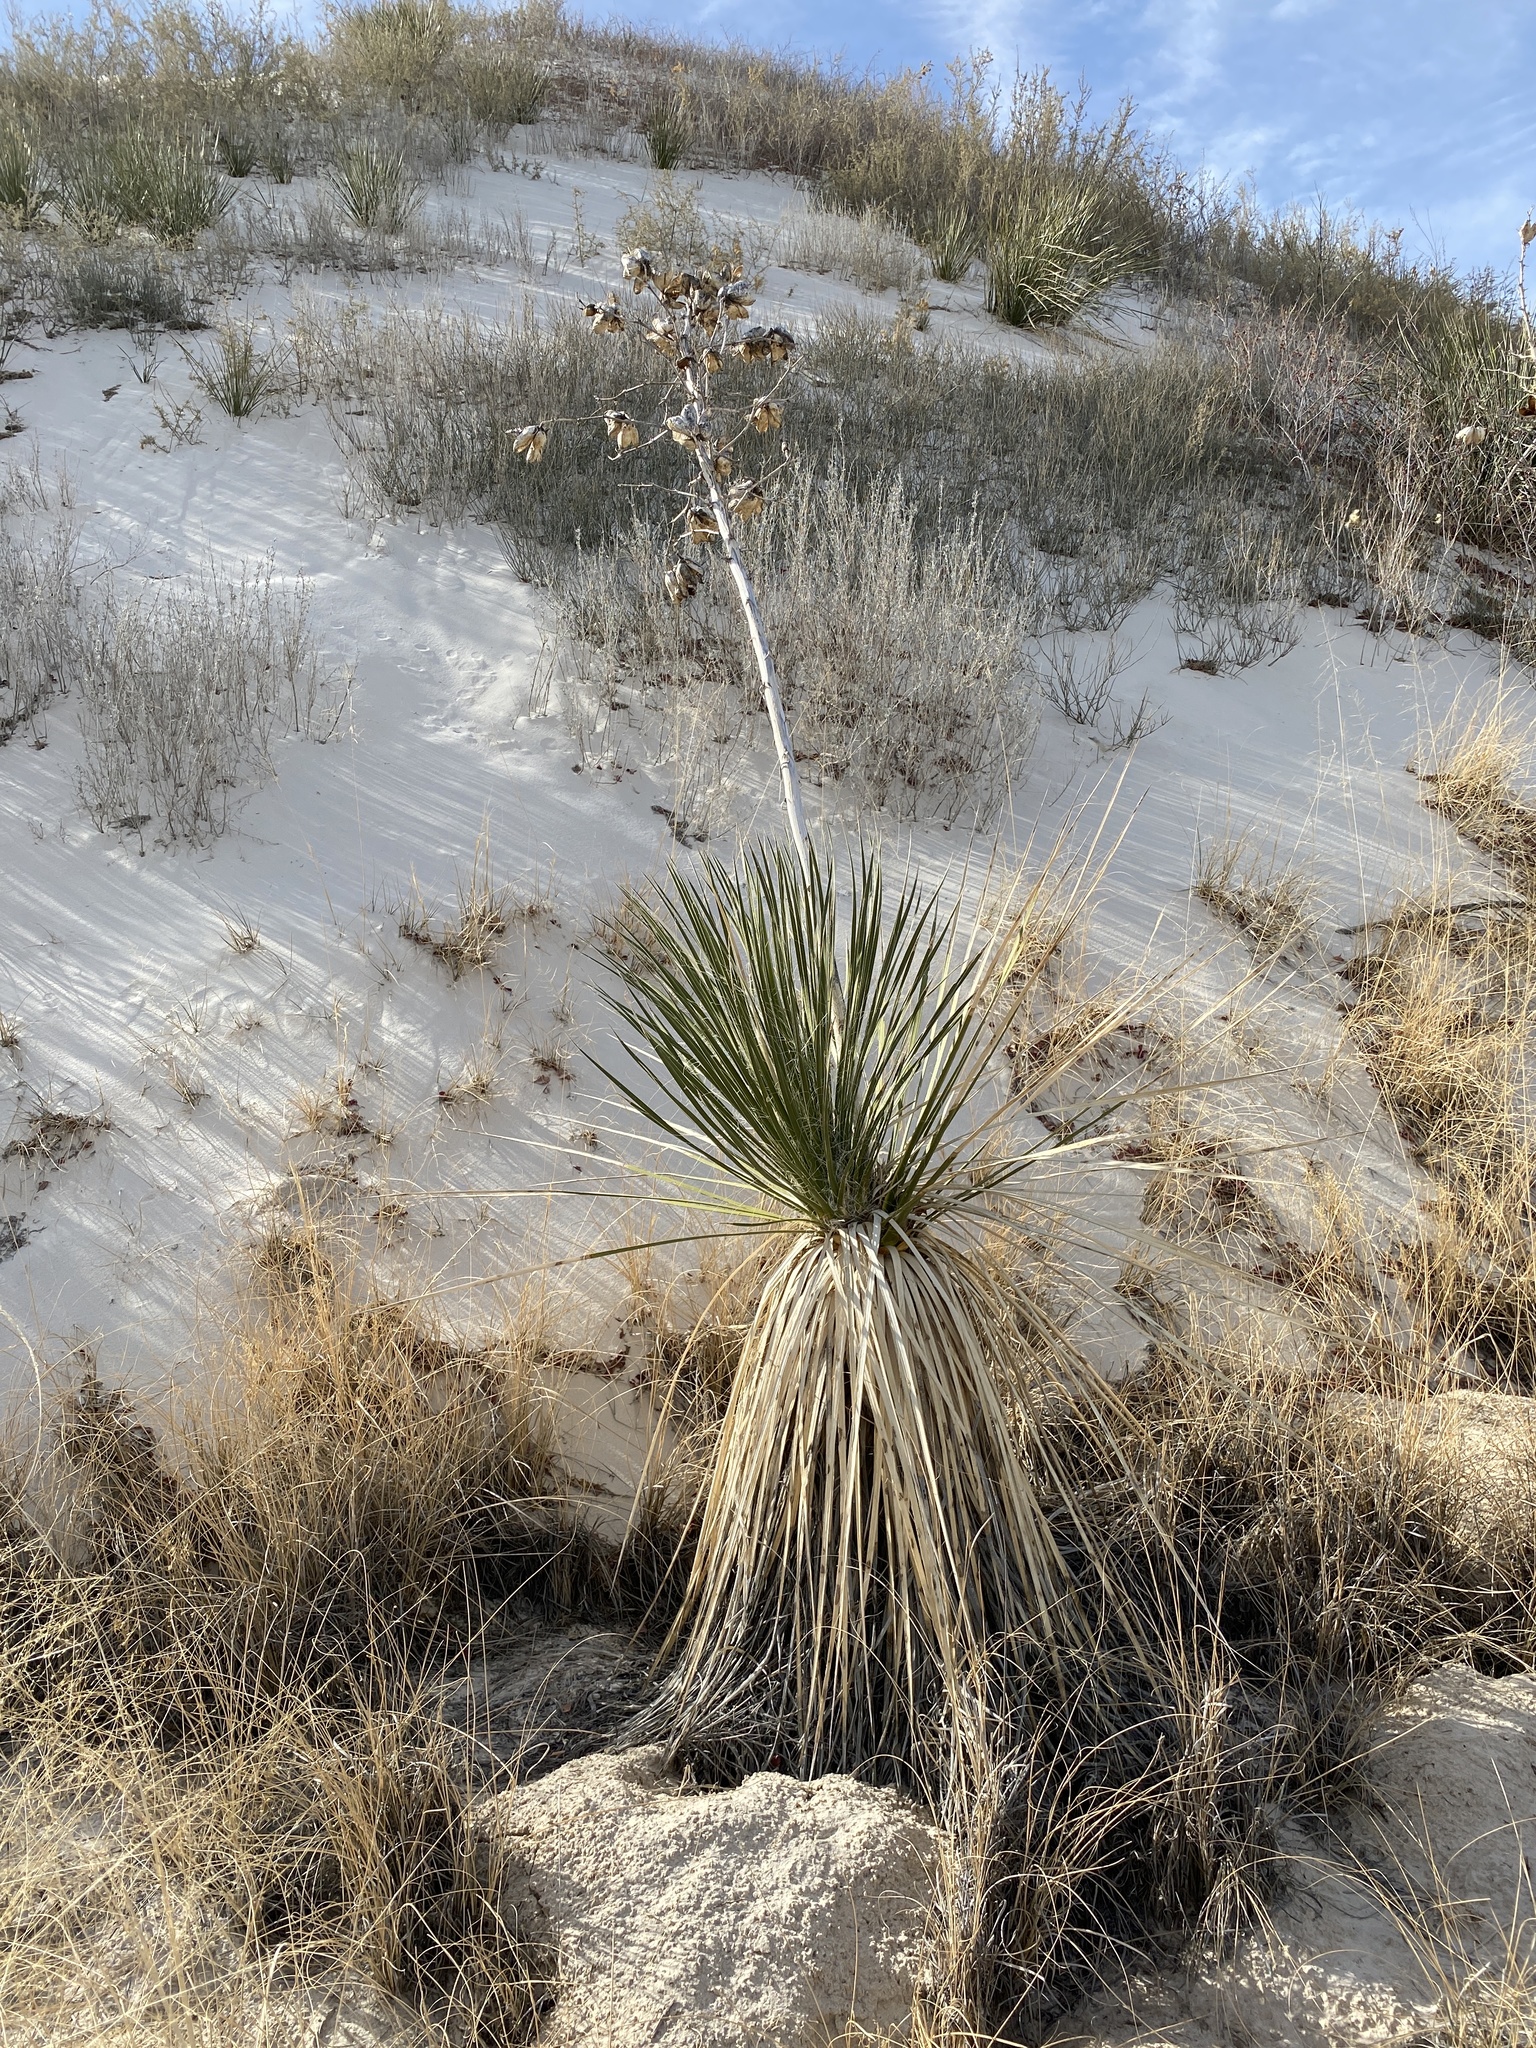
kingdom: Plantae
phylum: Tracheophyta
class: Liliopsida
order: Asparagales
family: Asparagaceae
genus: Yucca
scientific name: Yucca elata
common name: Palmella
